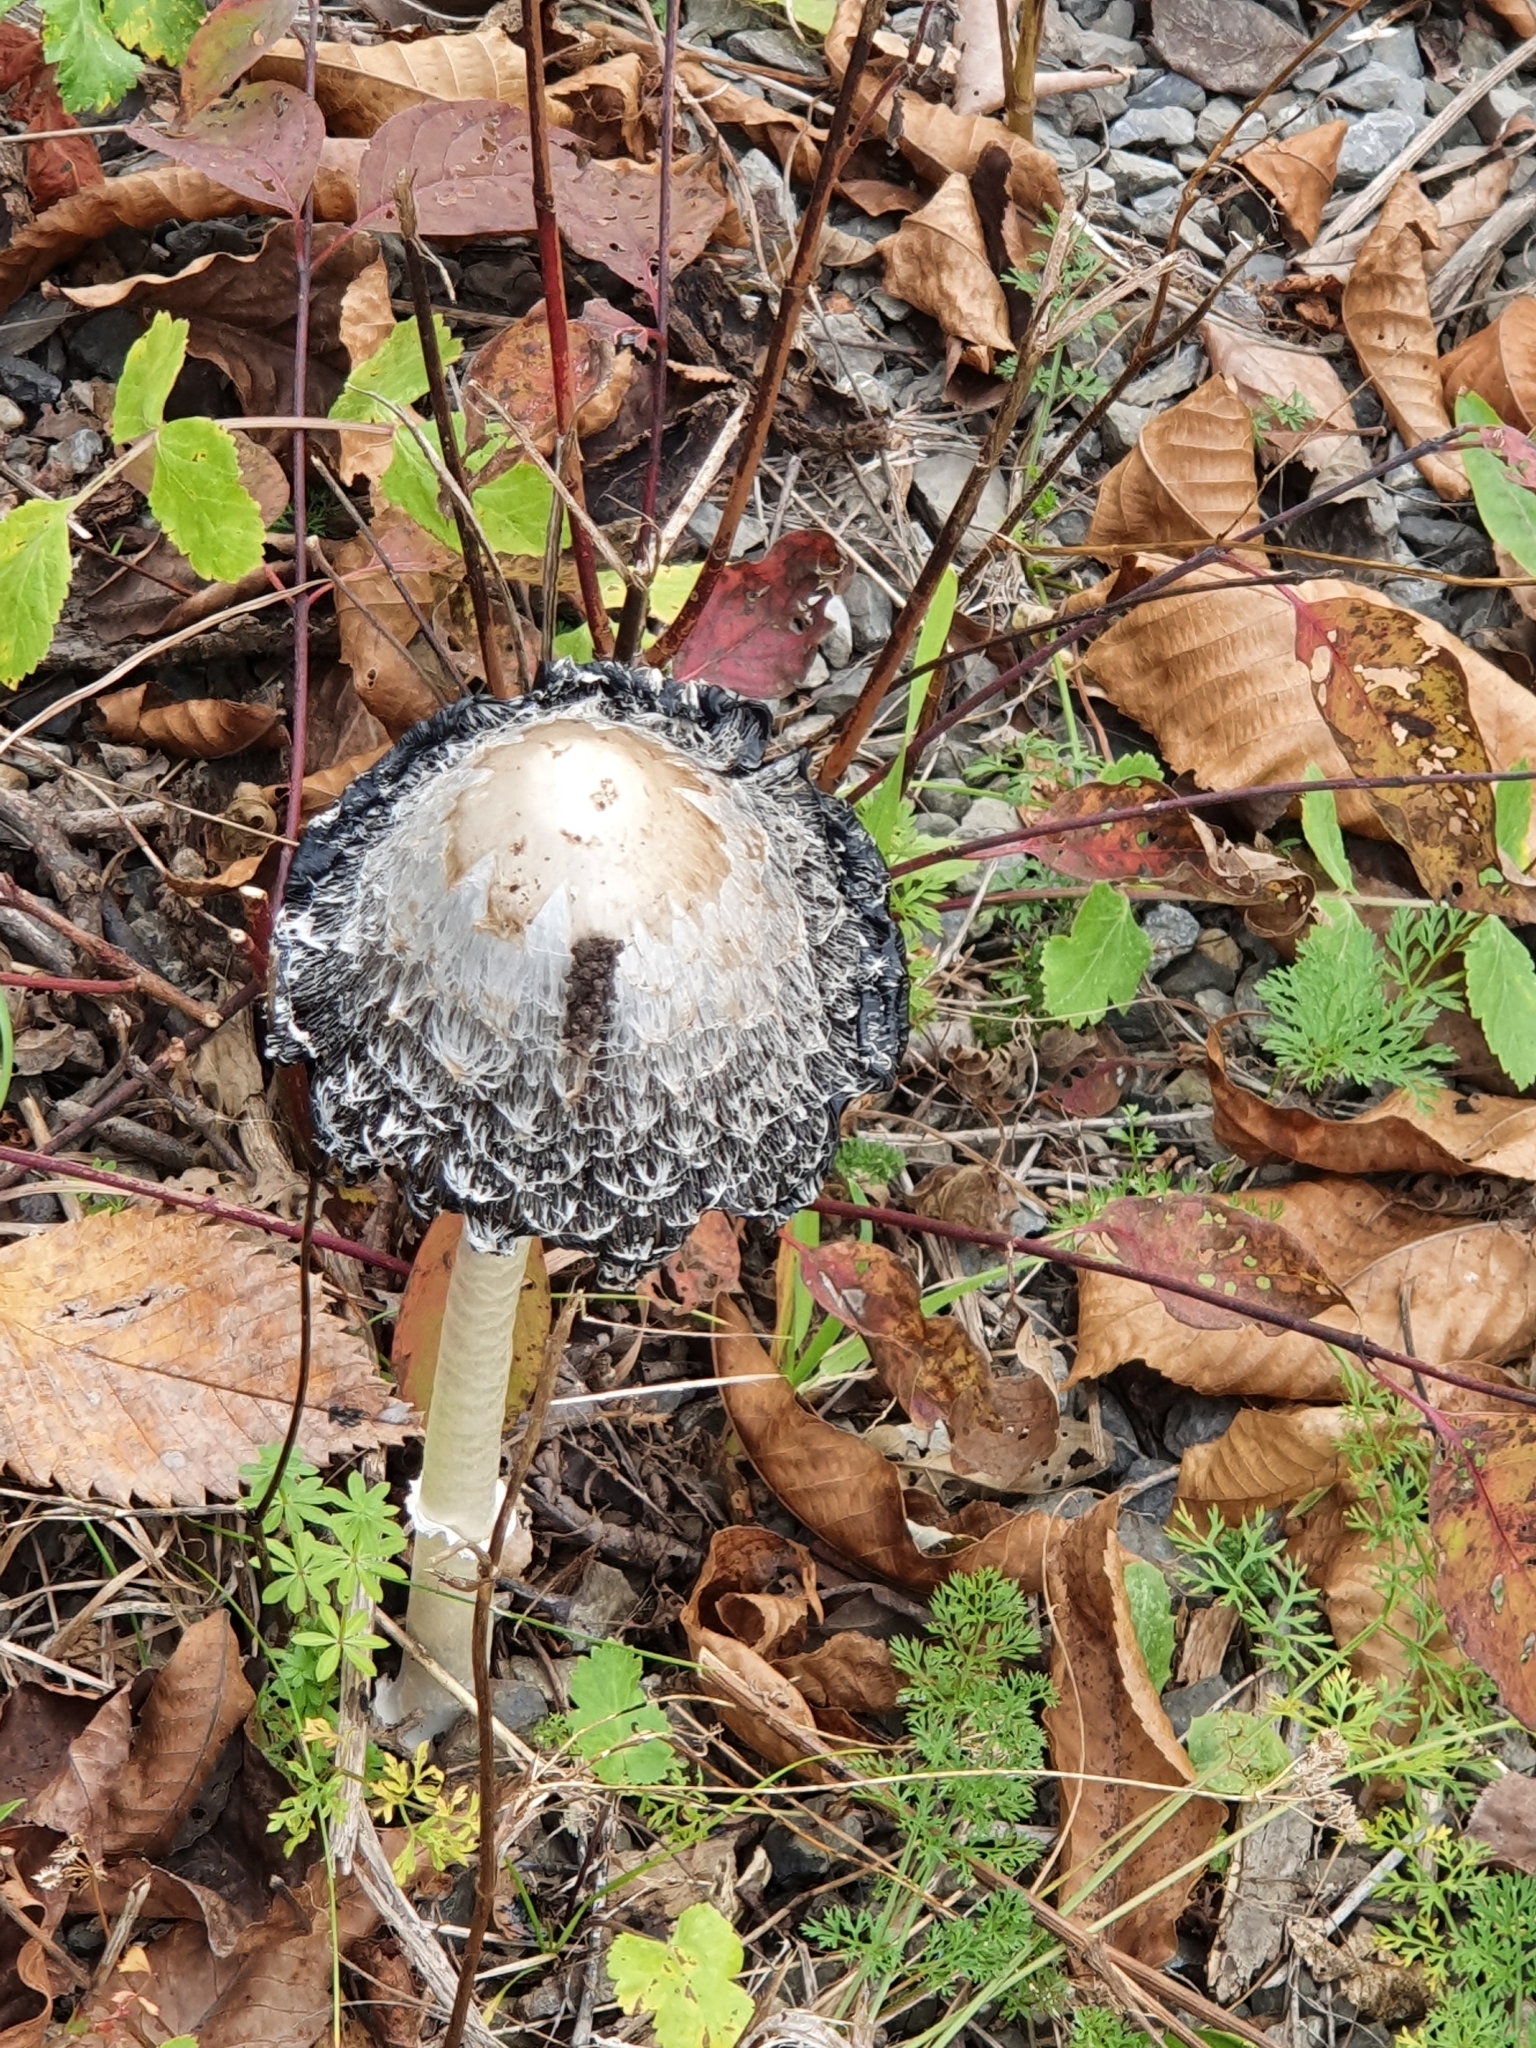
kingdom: Fungi
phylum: Basidiomycota
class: Agaricomycetes
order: Agaricales
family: Agaricaceae
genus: Coprinus
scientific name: Coprinus comatus
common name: Lawyer's wig
